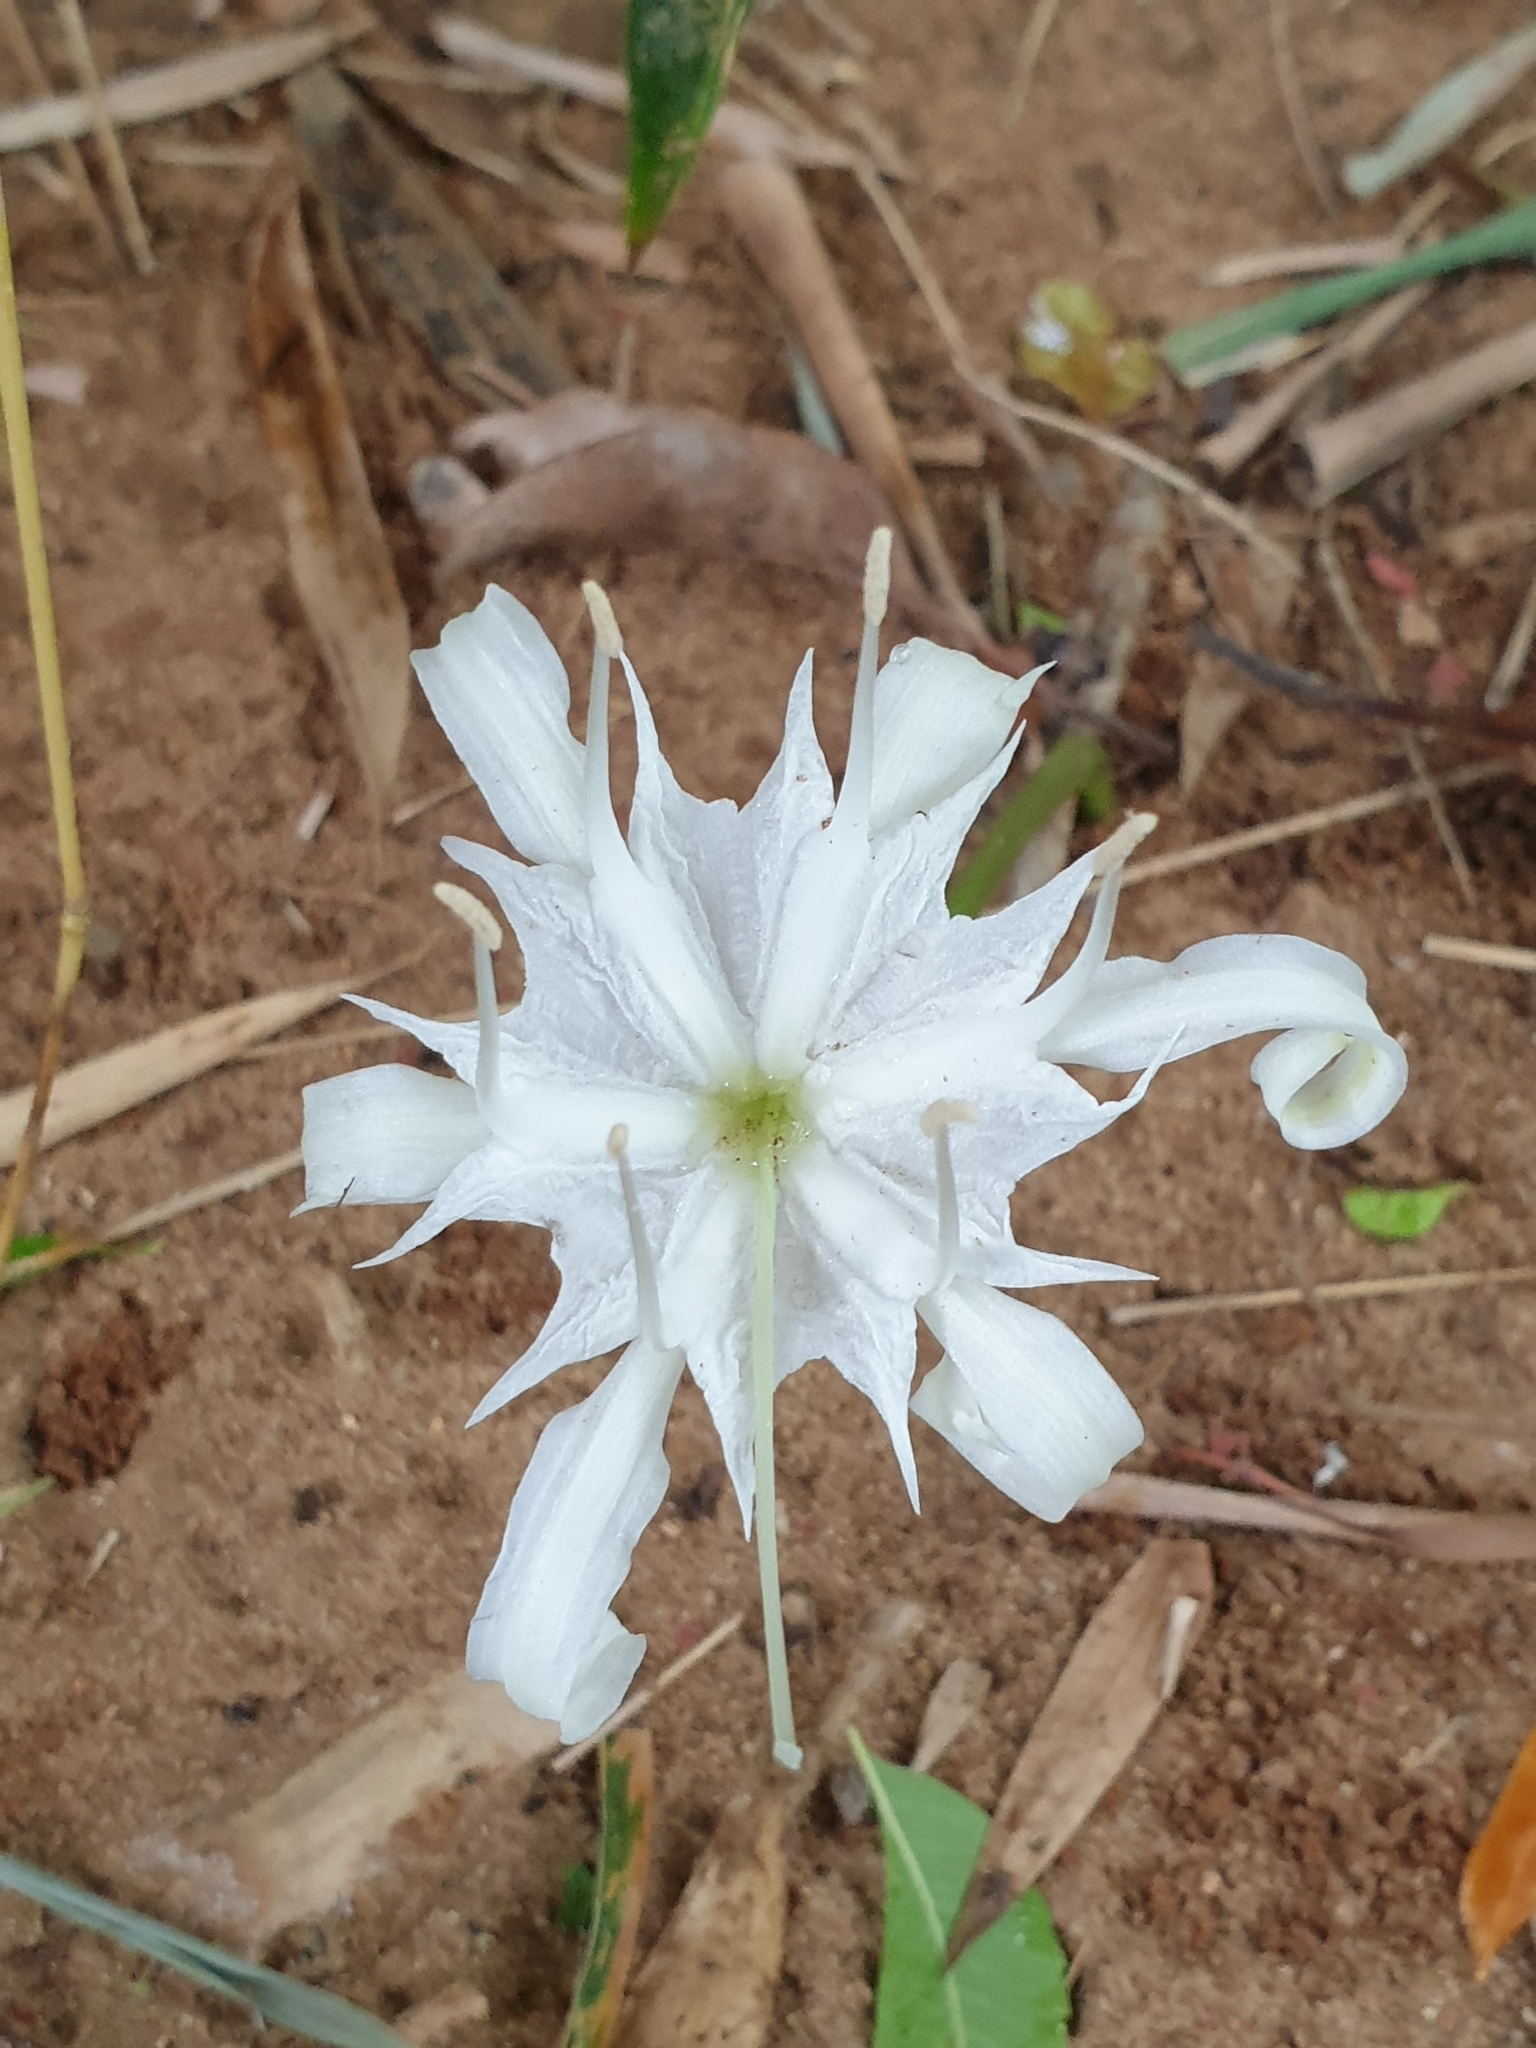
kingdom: Plantae
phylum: Tracheophyta
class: Liliopsida
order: Asparagales
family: Amaryllidaceae
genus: Pancratium
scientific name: Pancratium zeylanicum
